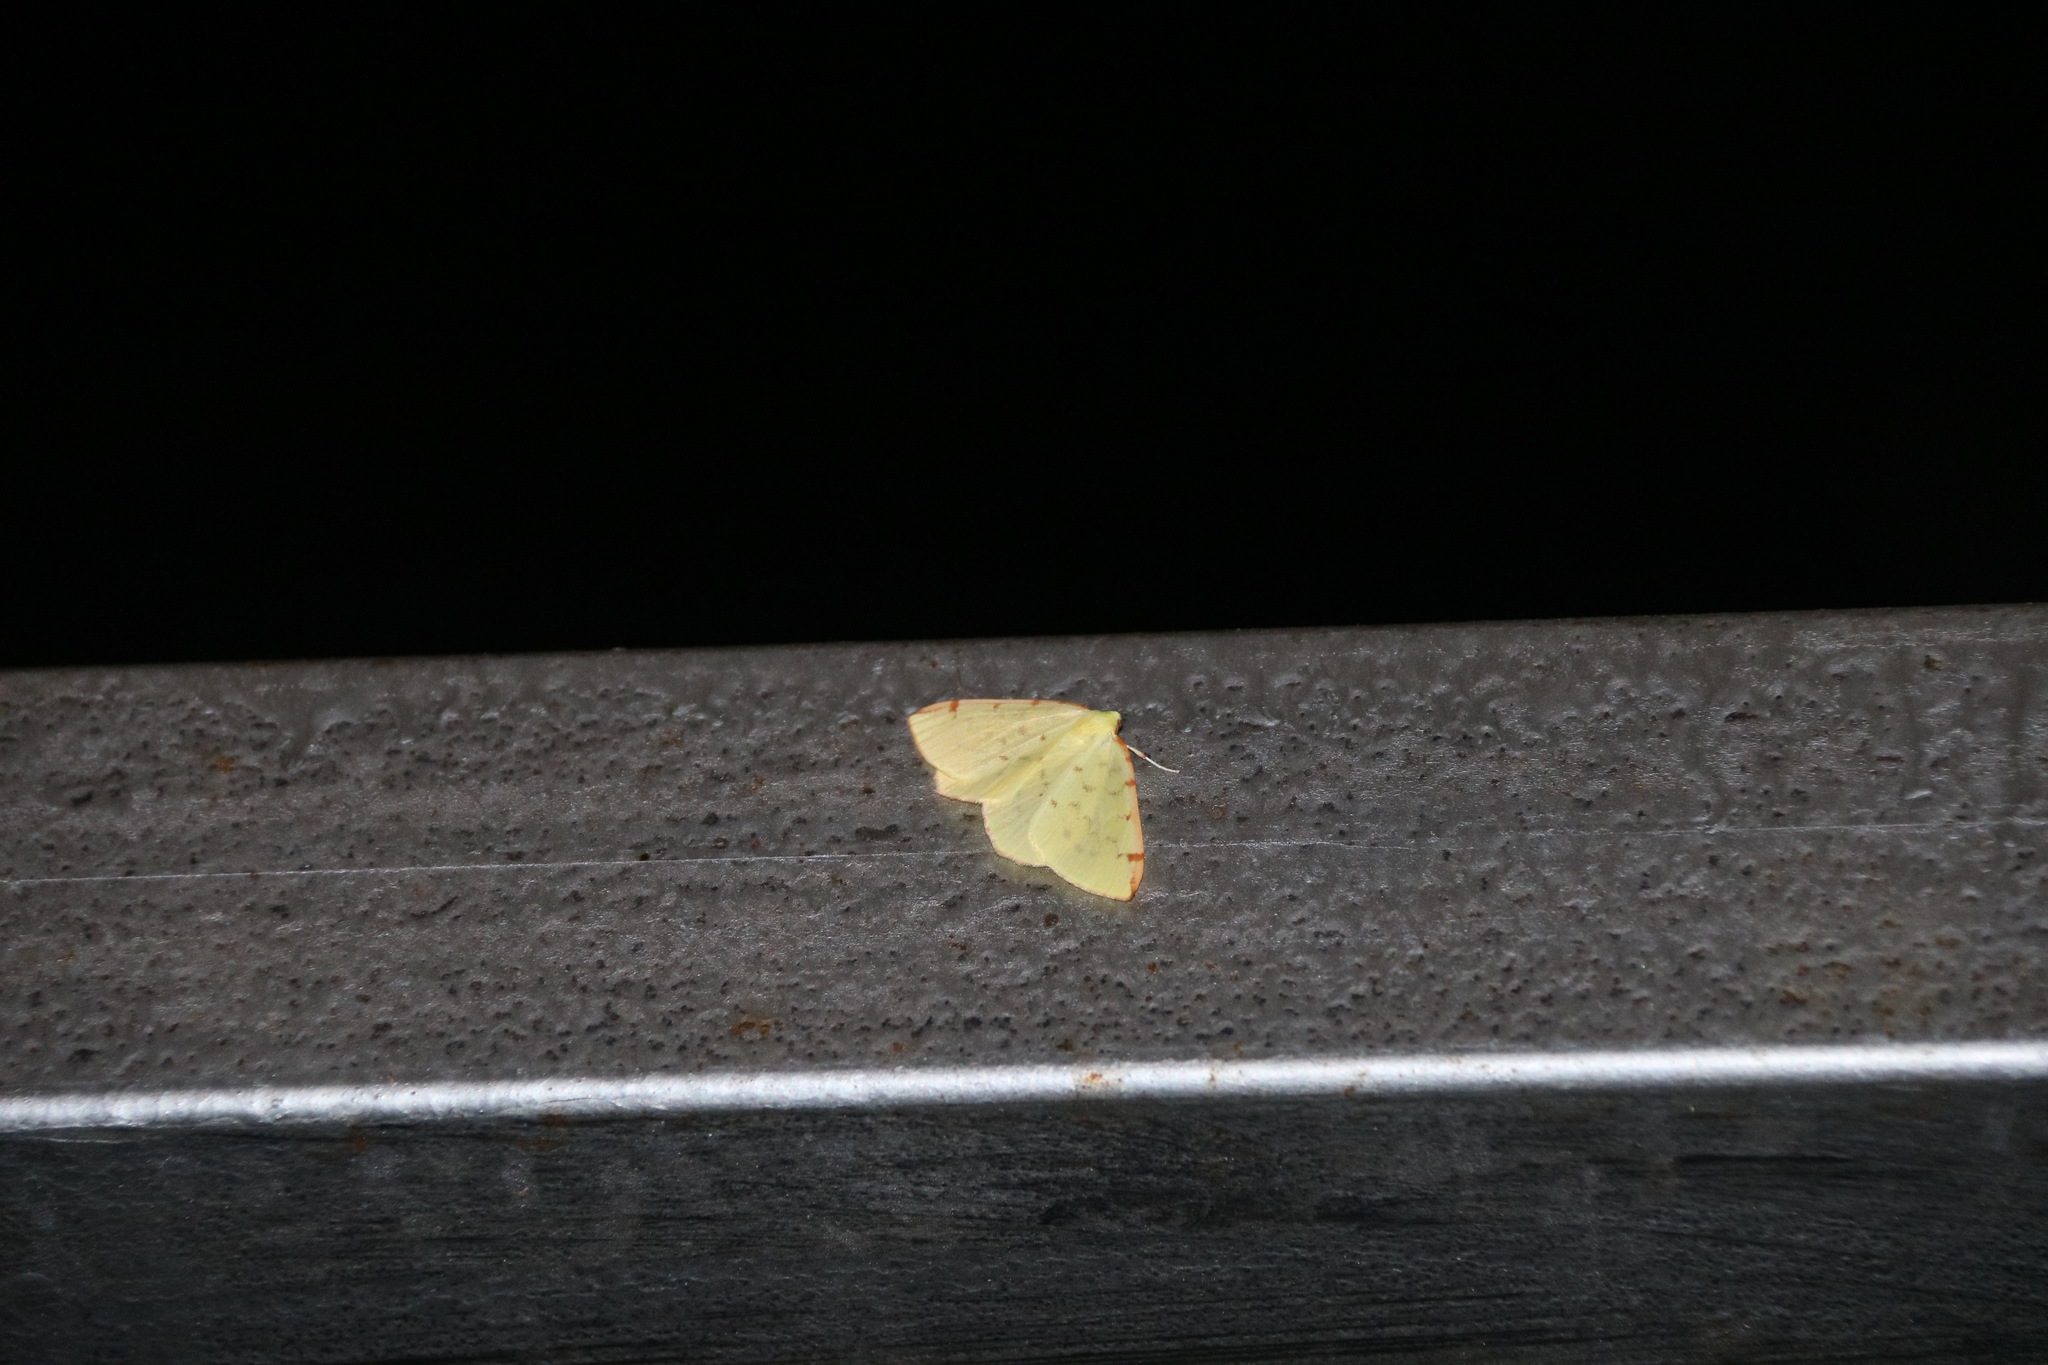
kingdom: Animalia
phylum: Arthropoda
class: Insecta
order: Lepidoptera
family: Geometridae
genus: Opisthograptis
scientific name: Opisthograptis luteolata
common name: Brimstone moth
